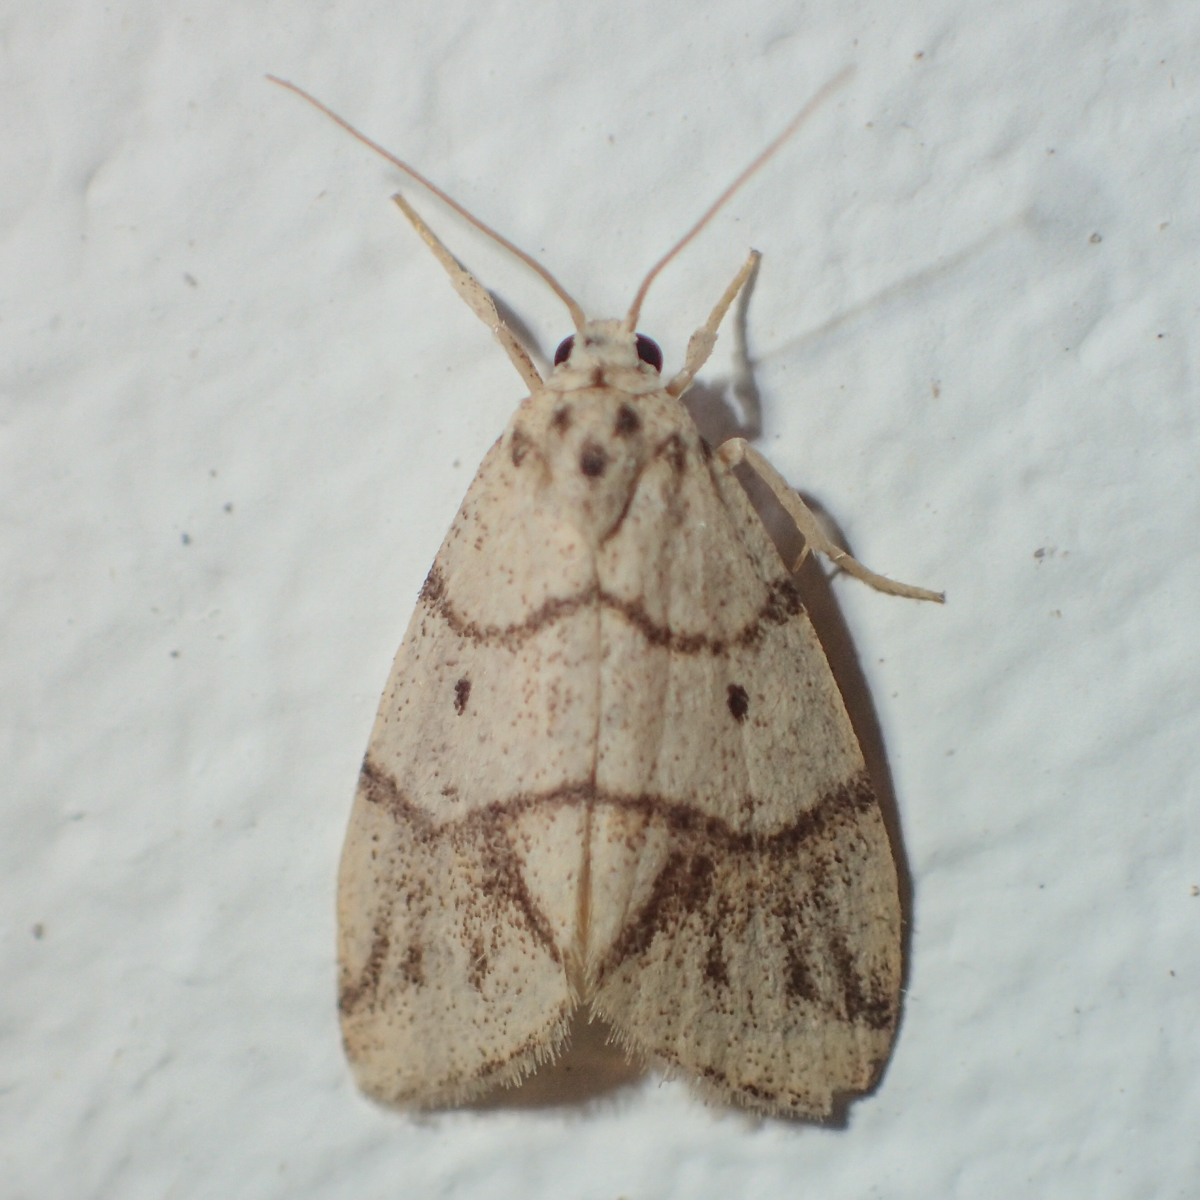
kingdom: Animalia
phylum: Arthropoda
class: Insecta
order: Lepidoptera
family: Erebidae
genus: Holocraspedon
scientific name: Holocraspedon bilineata
